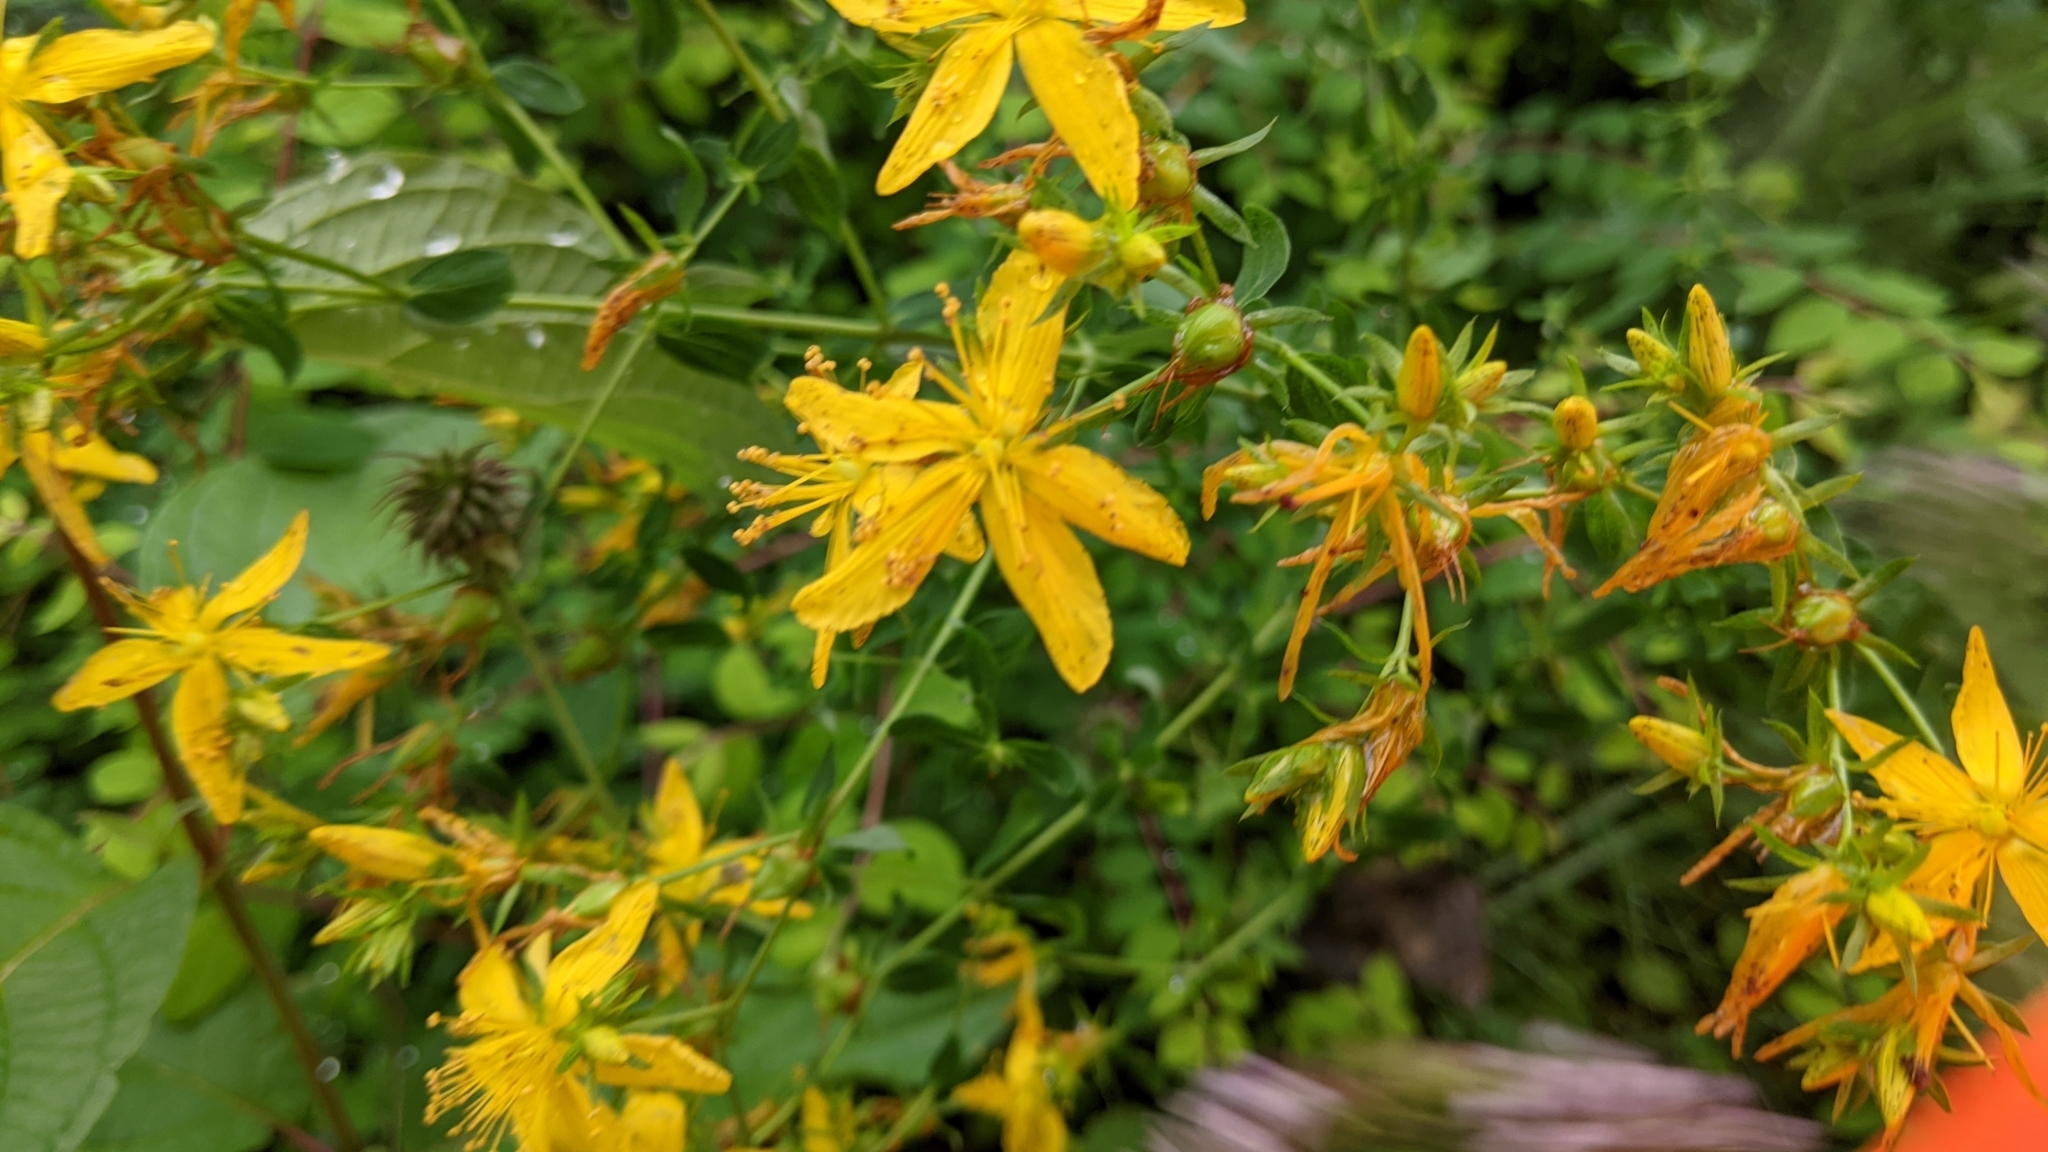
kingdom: Plantae
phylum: Tracheophyta
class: Magnoliopsida
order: Malpighiales
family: Hypericaceae
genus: Hypericum
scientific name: Hypericum perforatum
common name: Common st. johnswort
